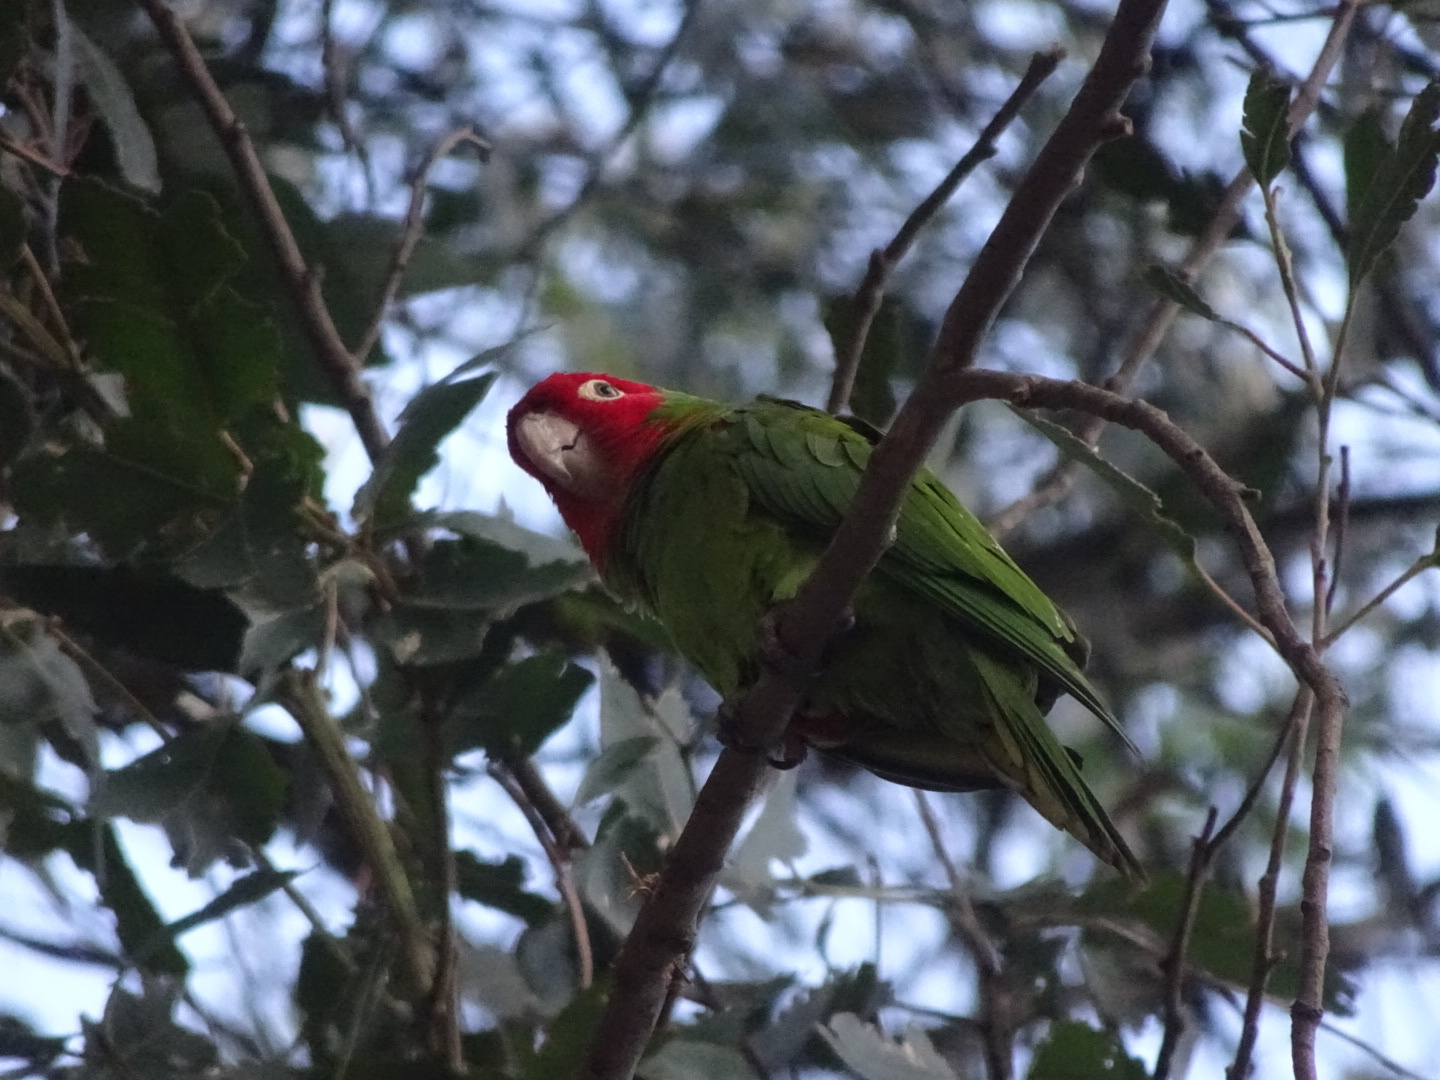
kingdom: Animalia
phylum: Chordata
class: Aves
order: Psittaciformes
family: Psittacidae
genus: Aratinga
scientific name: Aratinga erythrogenys
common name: Red-masked parakeet
